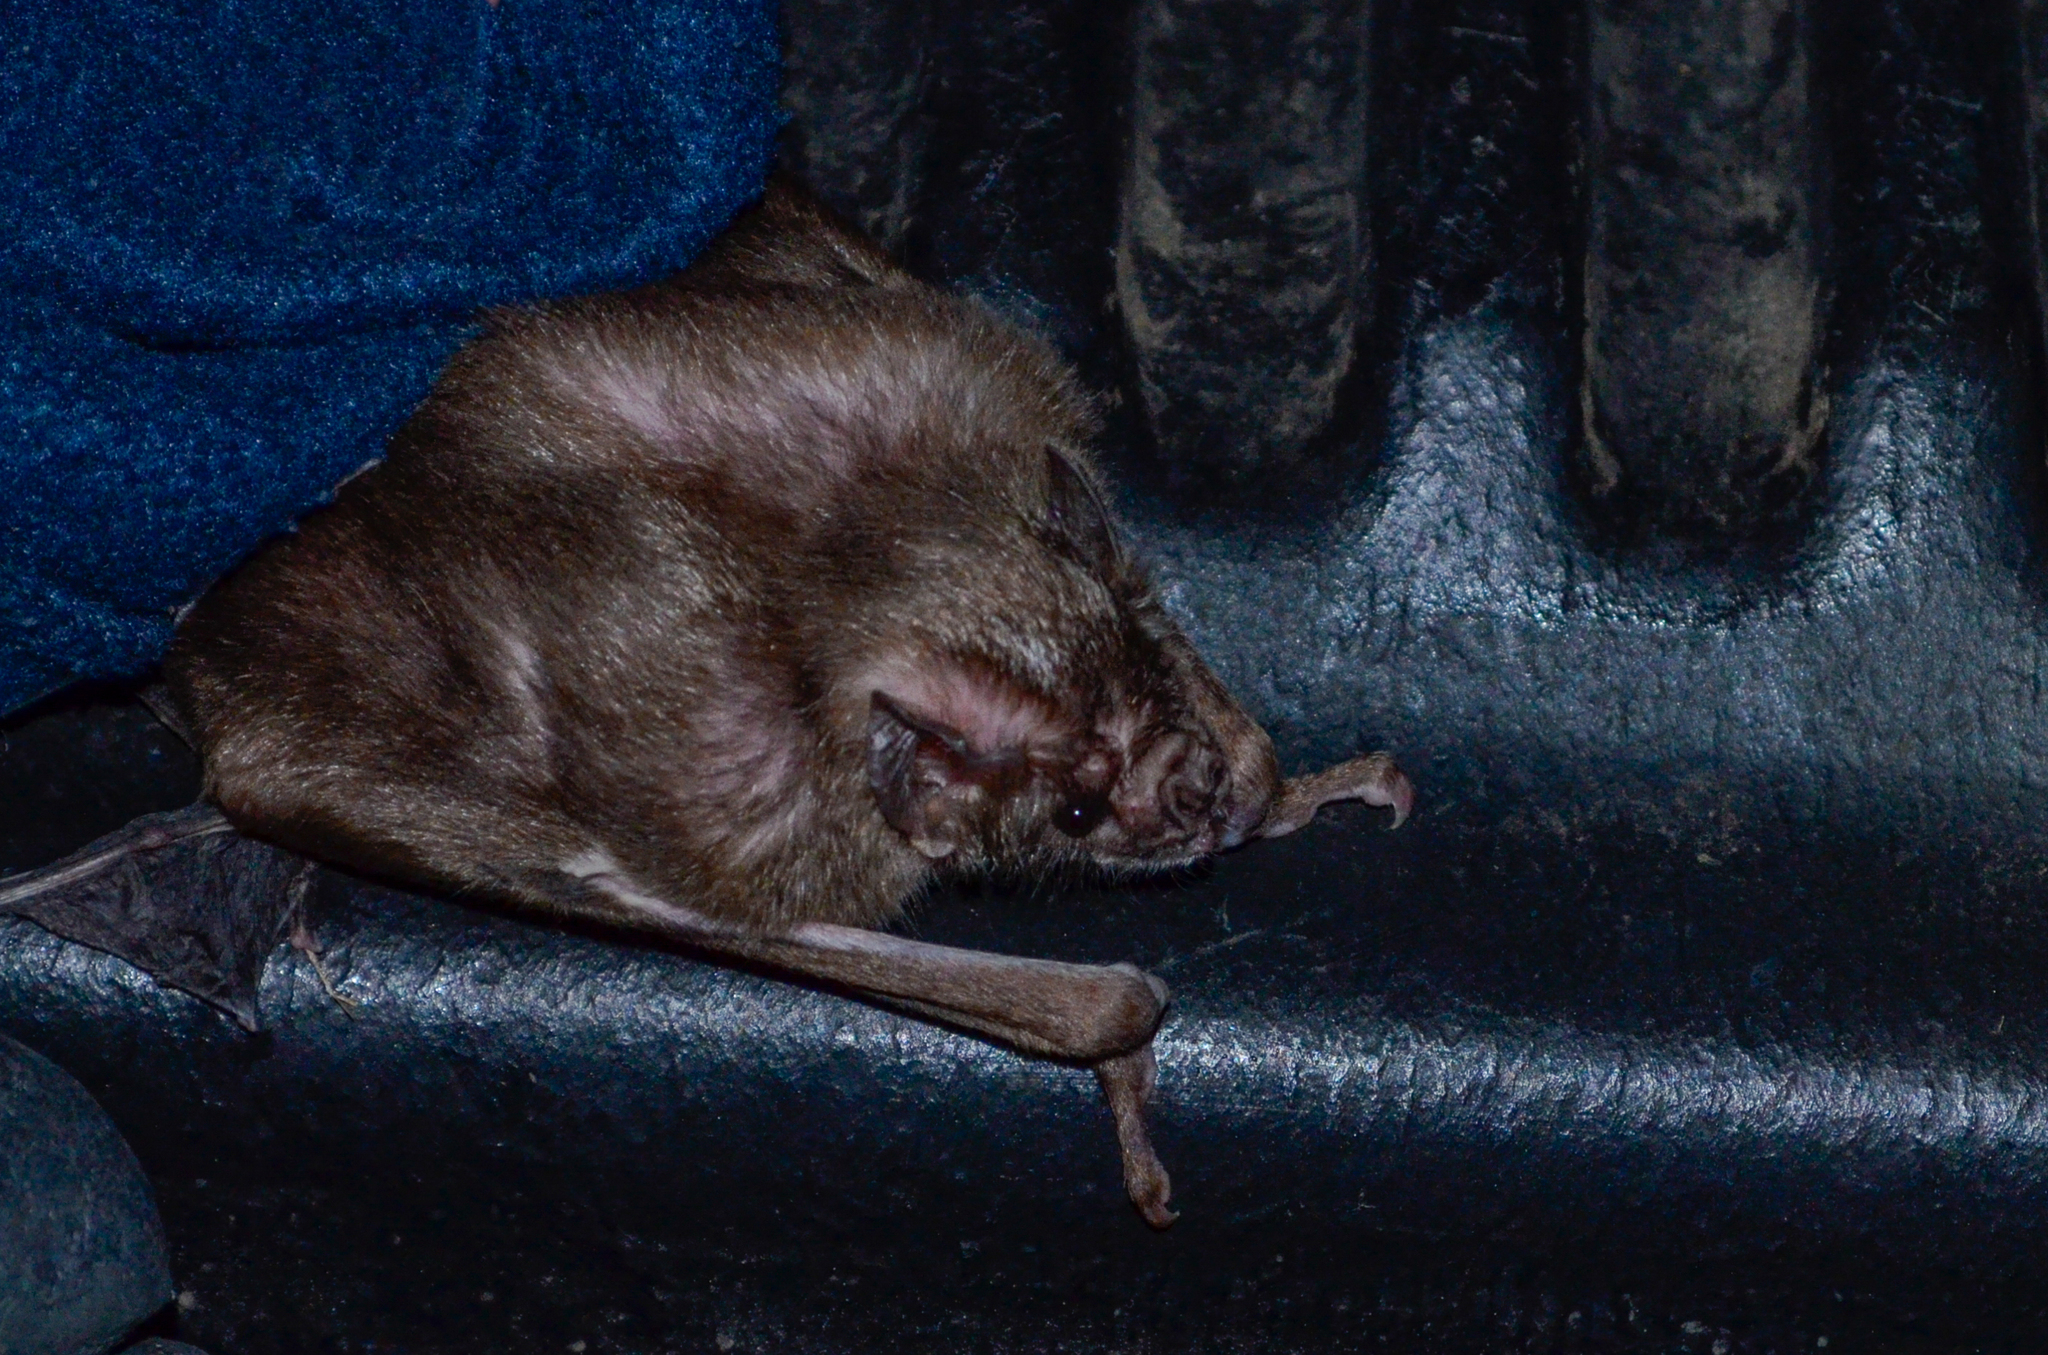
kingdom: Animalia
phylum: Chordata
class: Mammalia
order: Chiroptera
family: Phyllostomidae
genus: Desmodus
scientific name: Desmodus rotundus
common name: Common vampire bat
